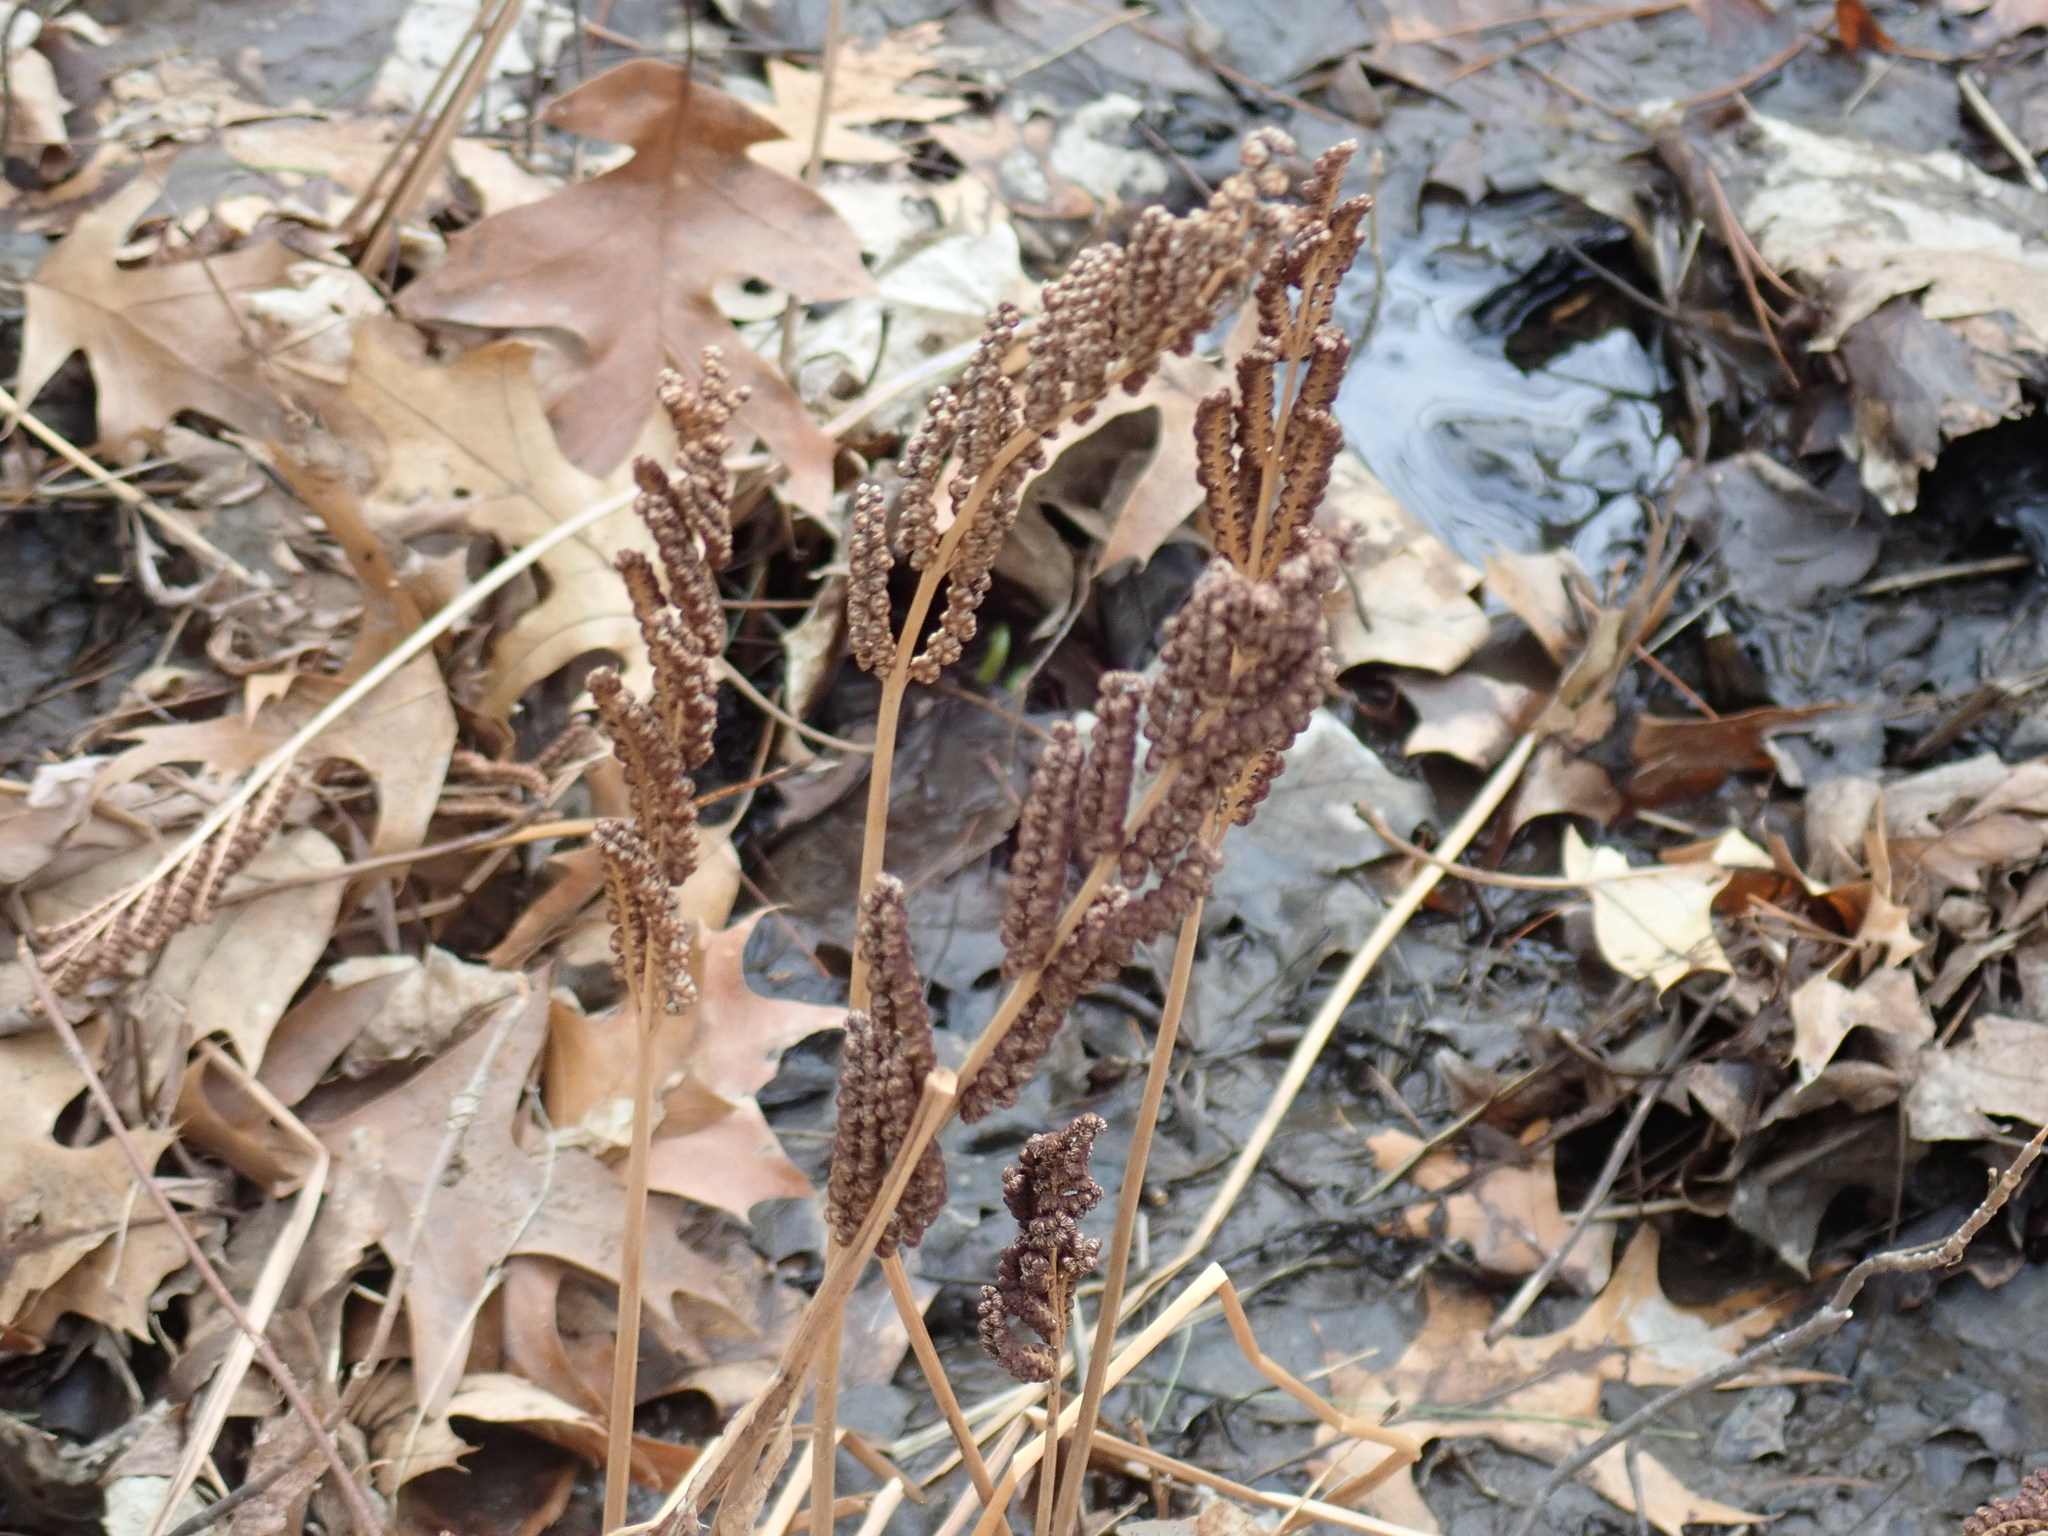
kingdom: Plantae
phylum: Tracheophyta
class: Polypodiopsida
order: Polypodiales
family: Onocleaceae
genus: Onoclea
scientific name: Onoclea sensibilis
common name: Sensitive fern
